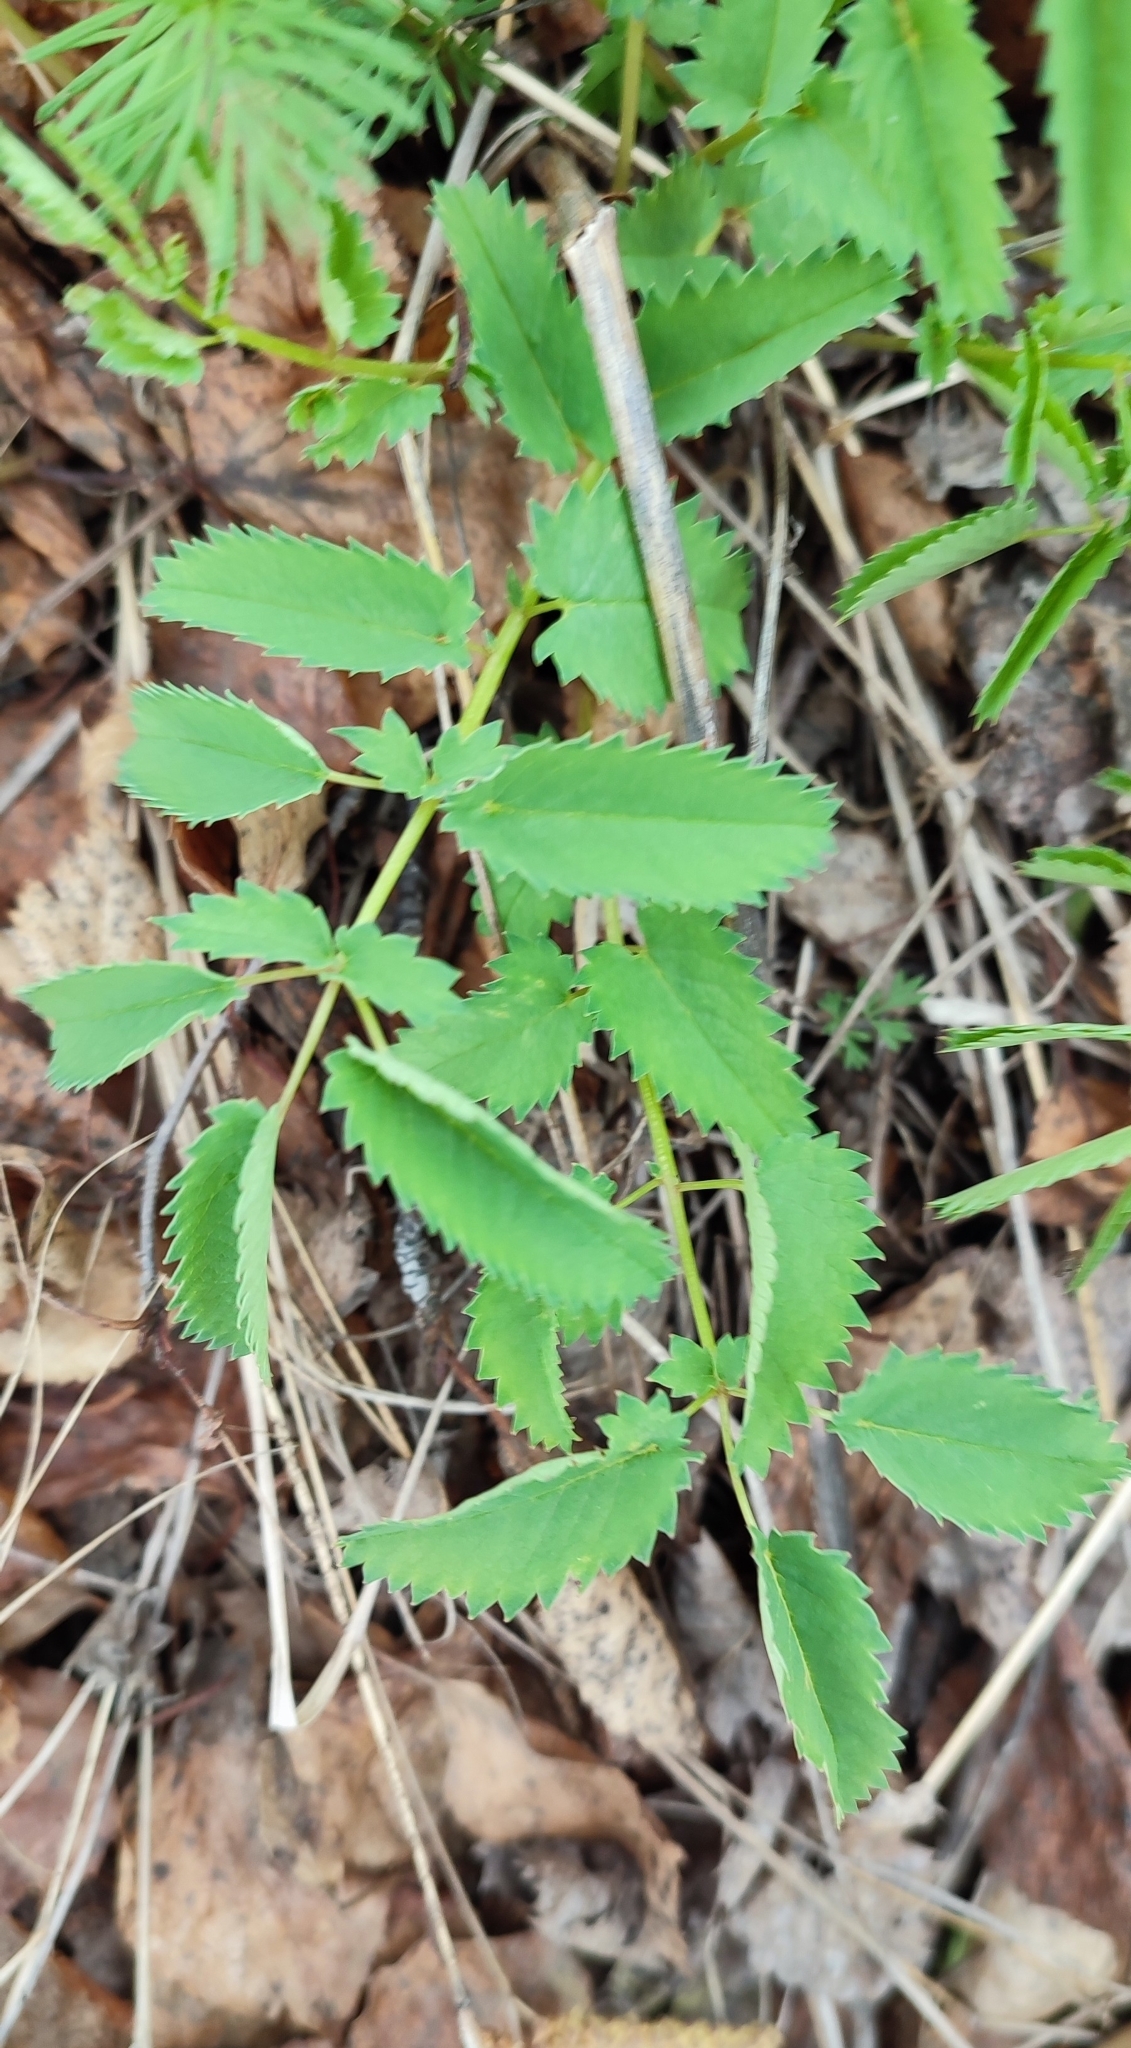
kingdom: Plantae
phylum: Tracheophyta
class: Magnoliopsida
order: Rosales
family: Rosaceae
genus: Sanguisorba
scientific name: Sanguisorba officinalis
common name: Great burnet
